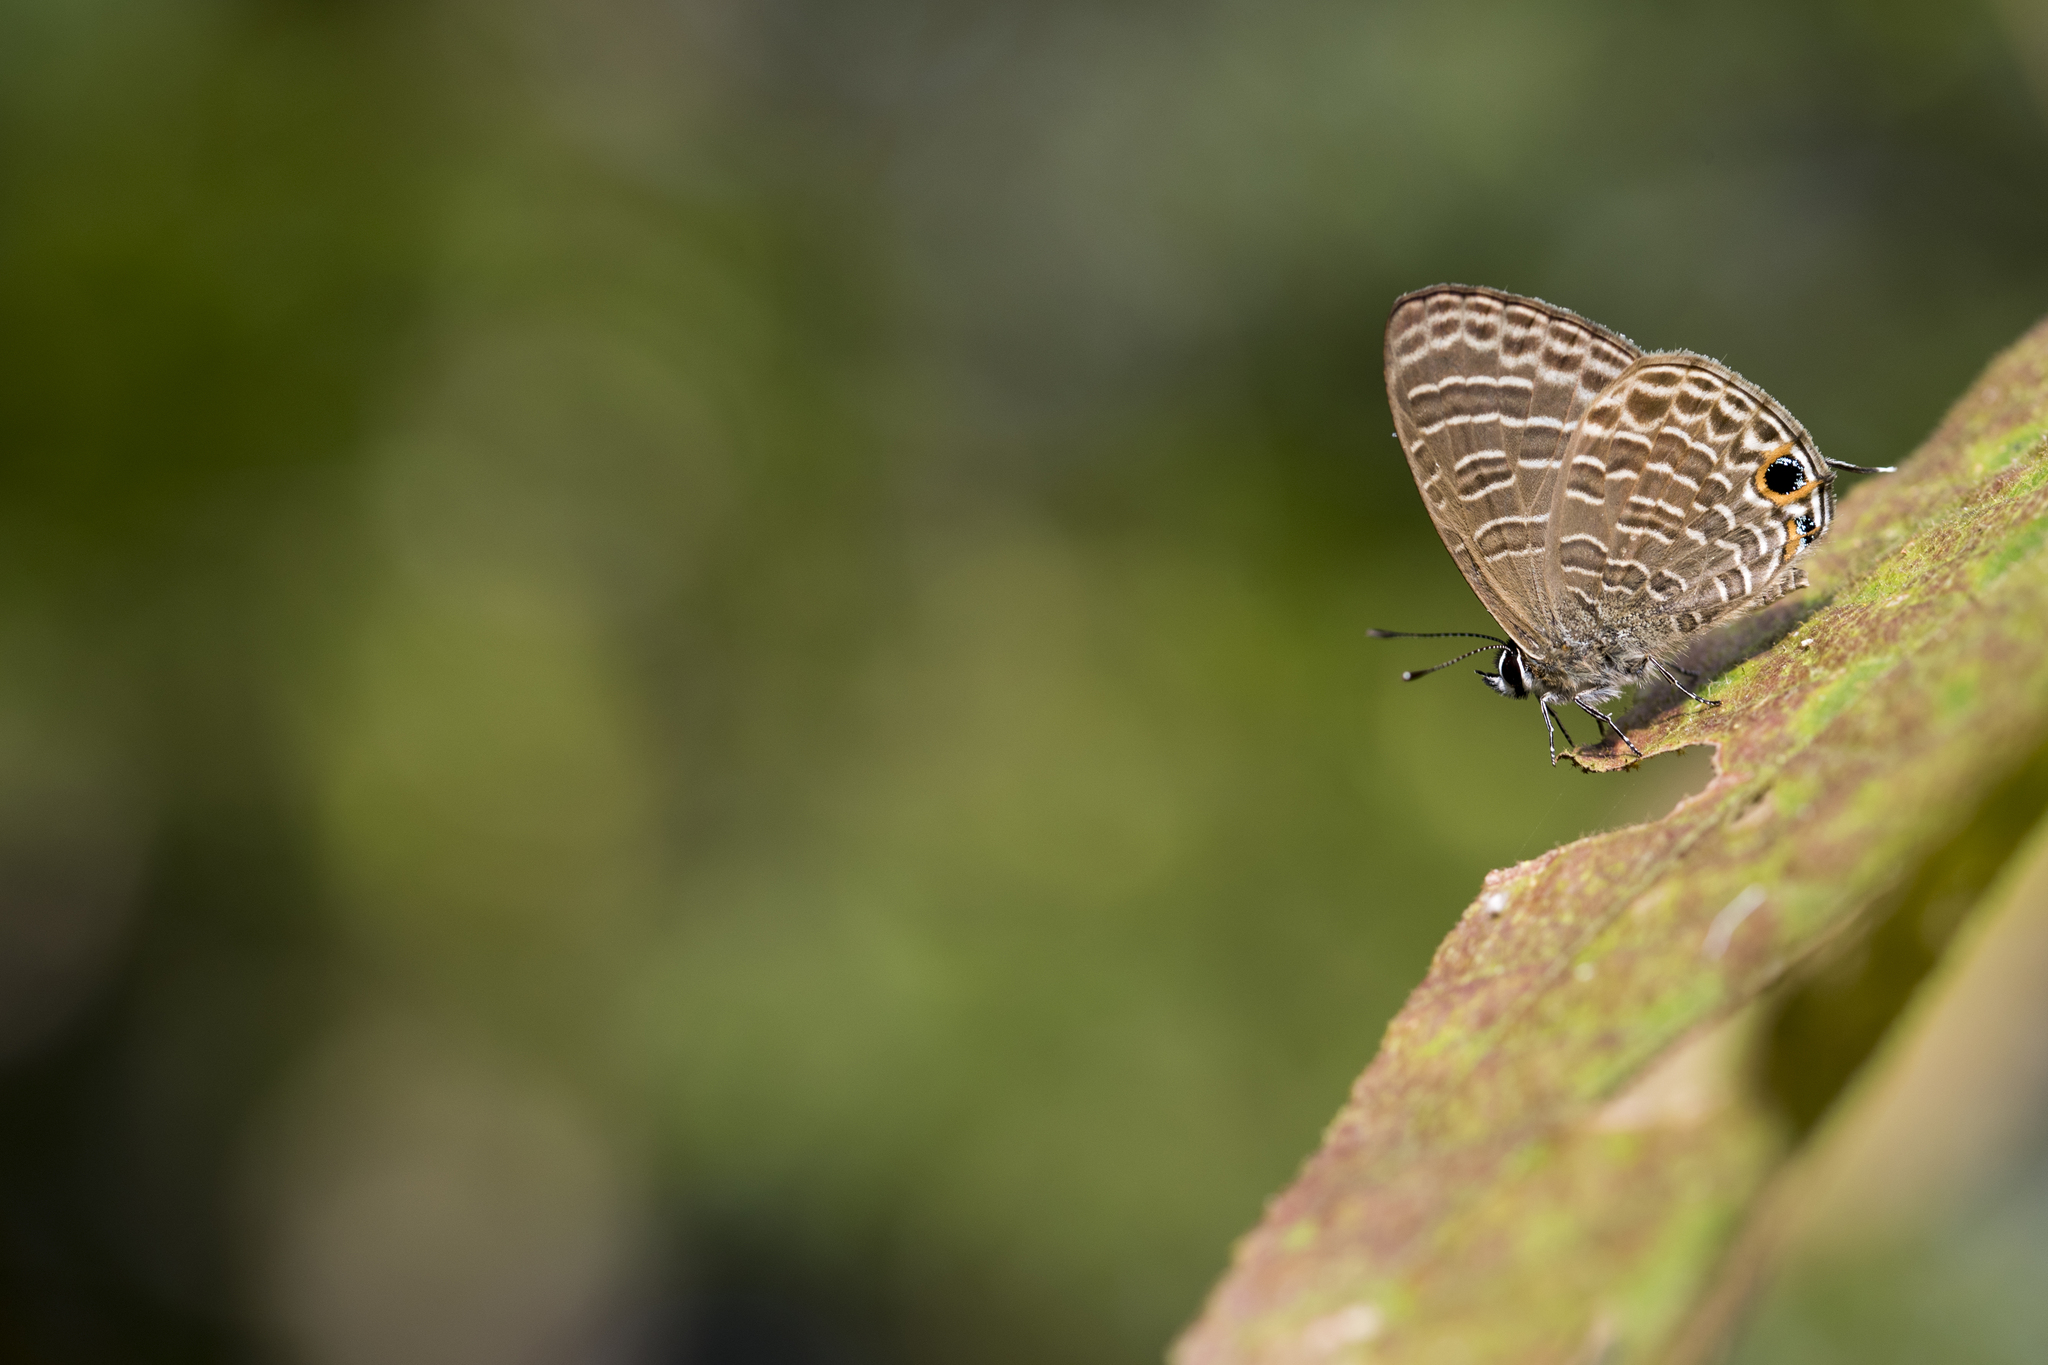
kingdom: Animalia
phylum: Arthropoda
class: Insecta
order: Lepidoptera
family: Lycaenidae
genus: Nacaduba
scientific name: Nacaduba kurava
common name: Transparent 6-line blue
